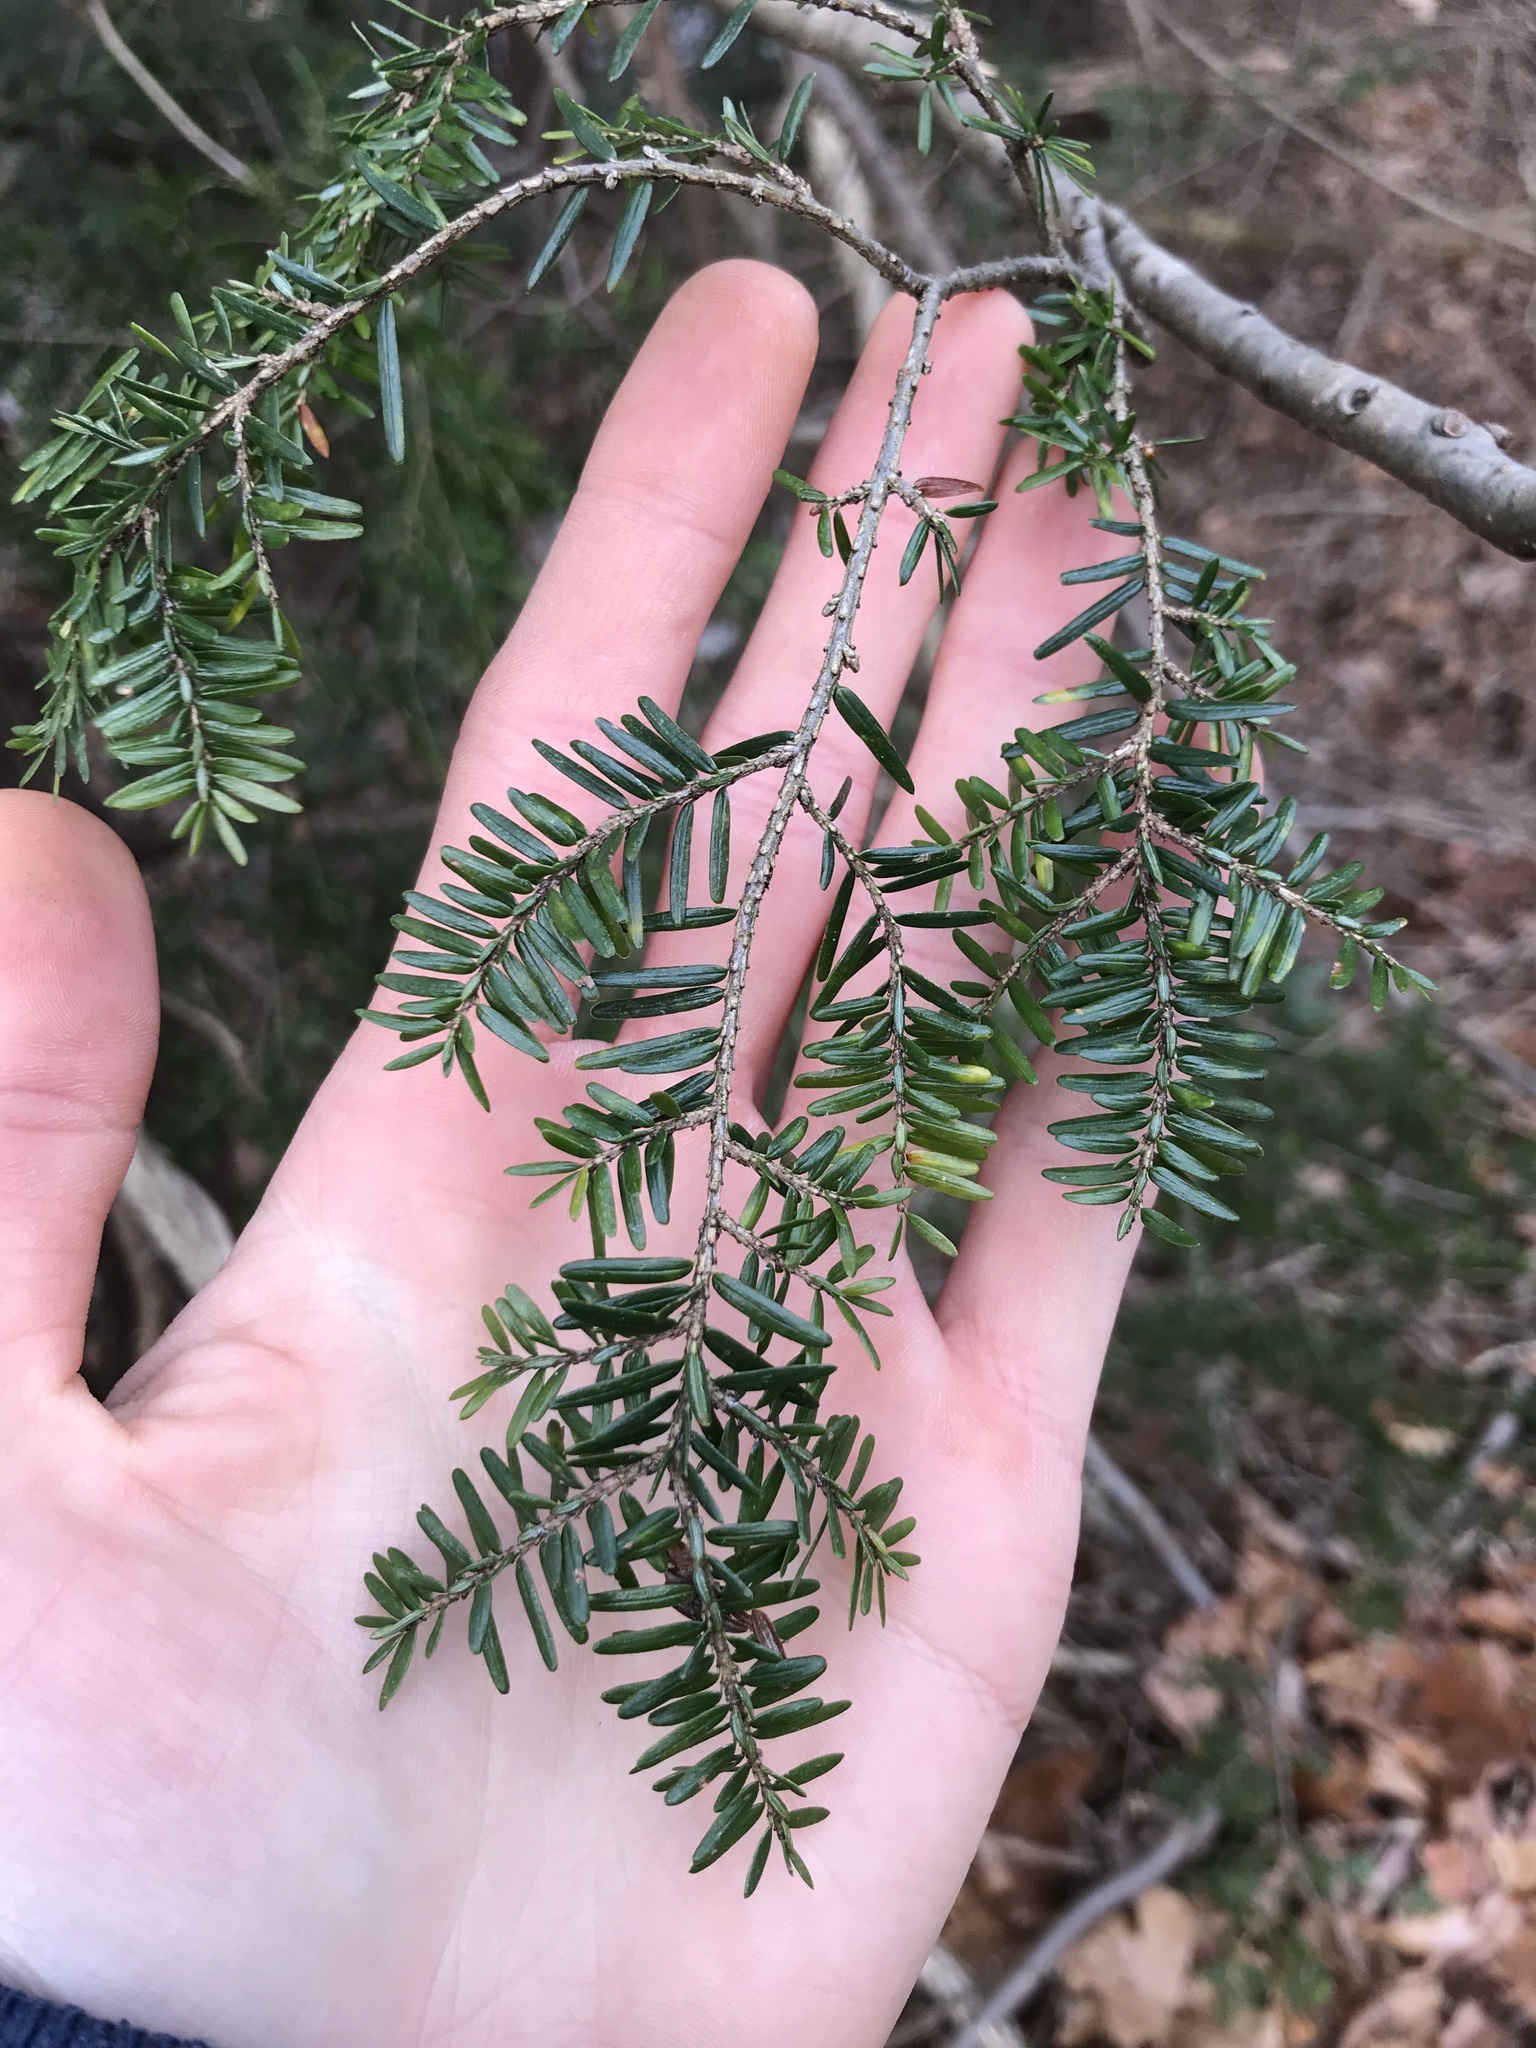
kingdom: Plantae
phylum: Tracheophyta
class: Pinopsida
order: Pinales
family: Pinaceae
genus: Tsuga
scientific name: Tsuga canadensis
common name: Eastern hemlock
